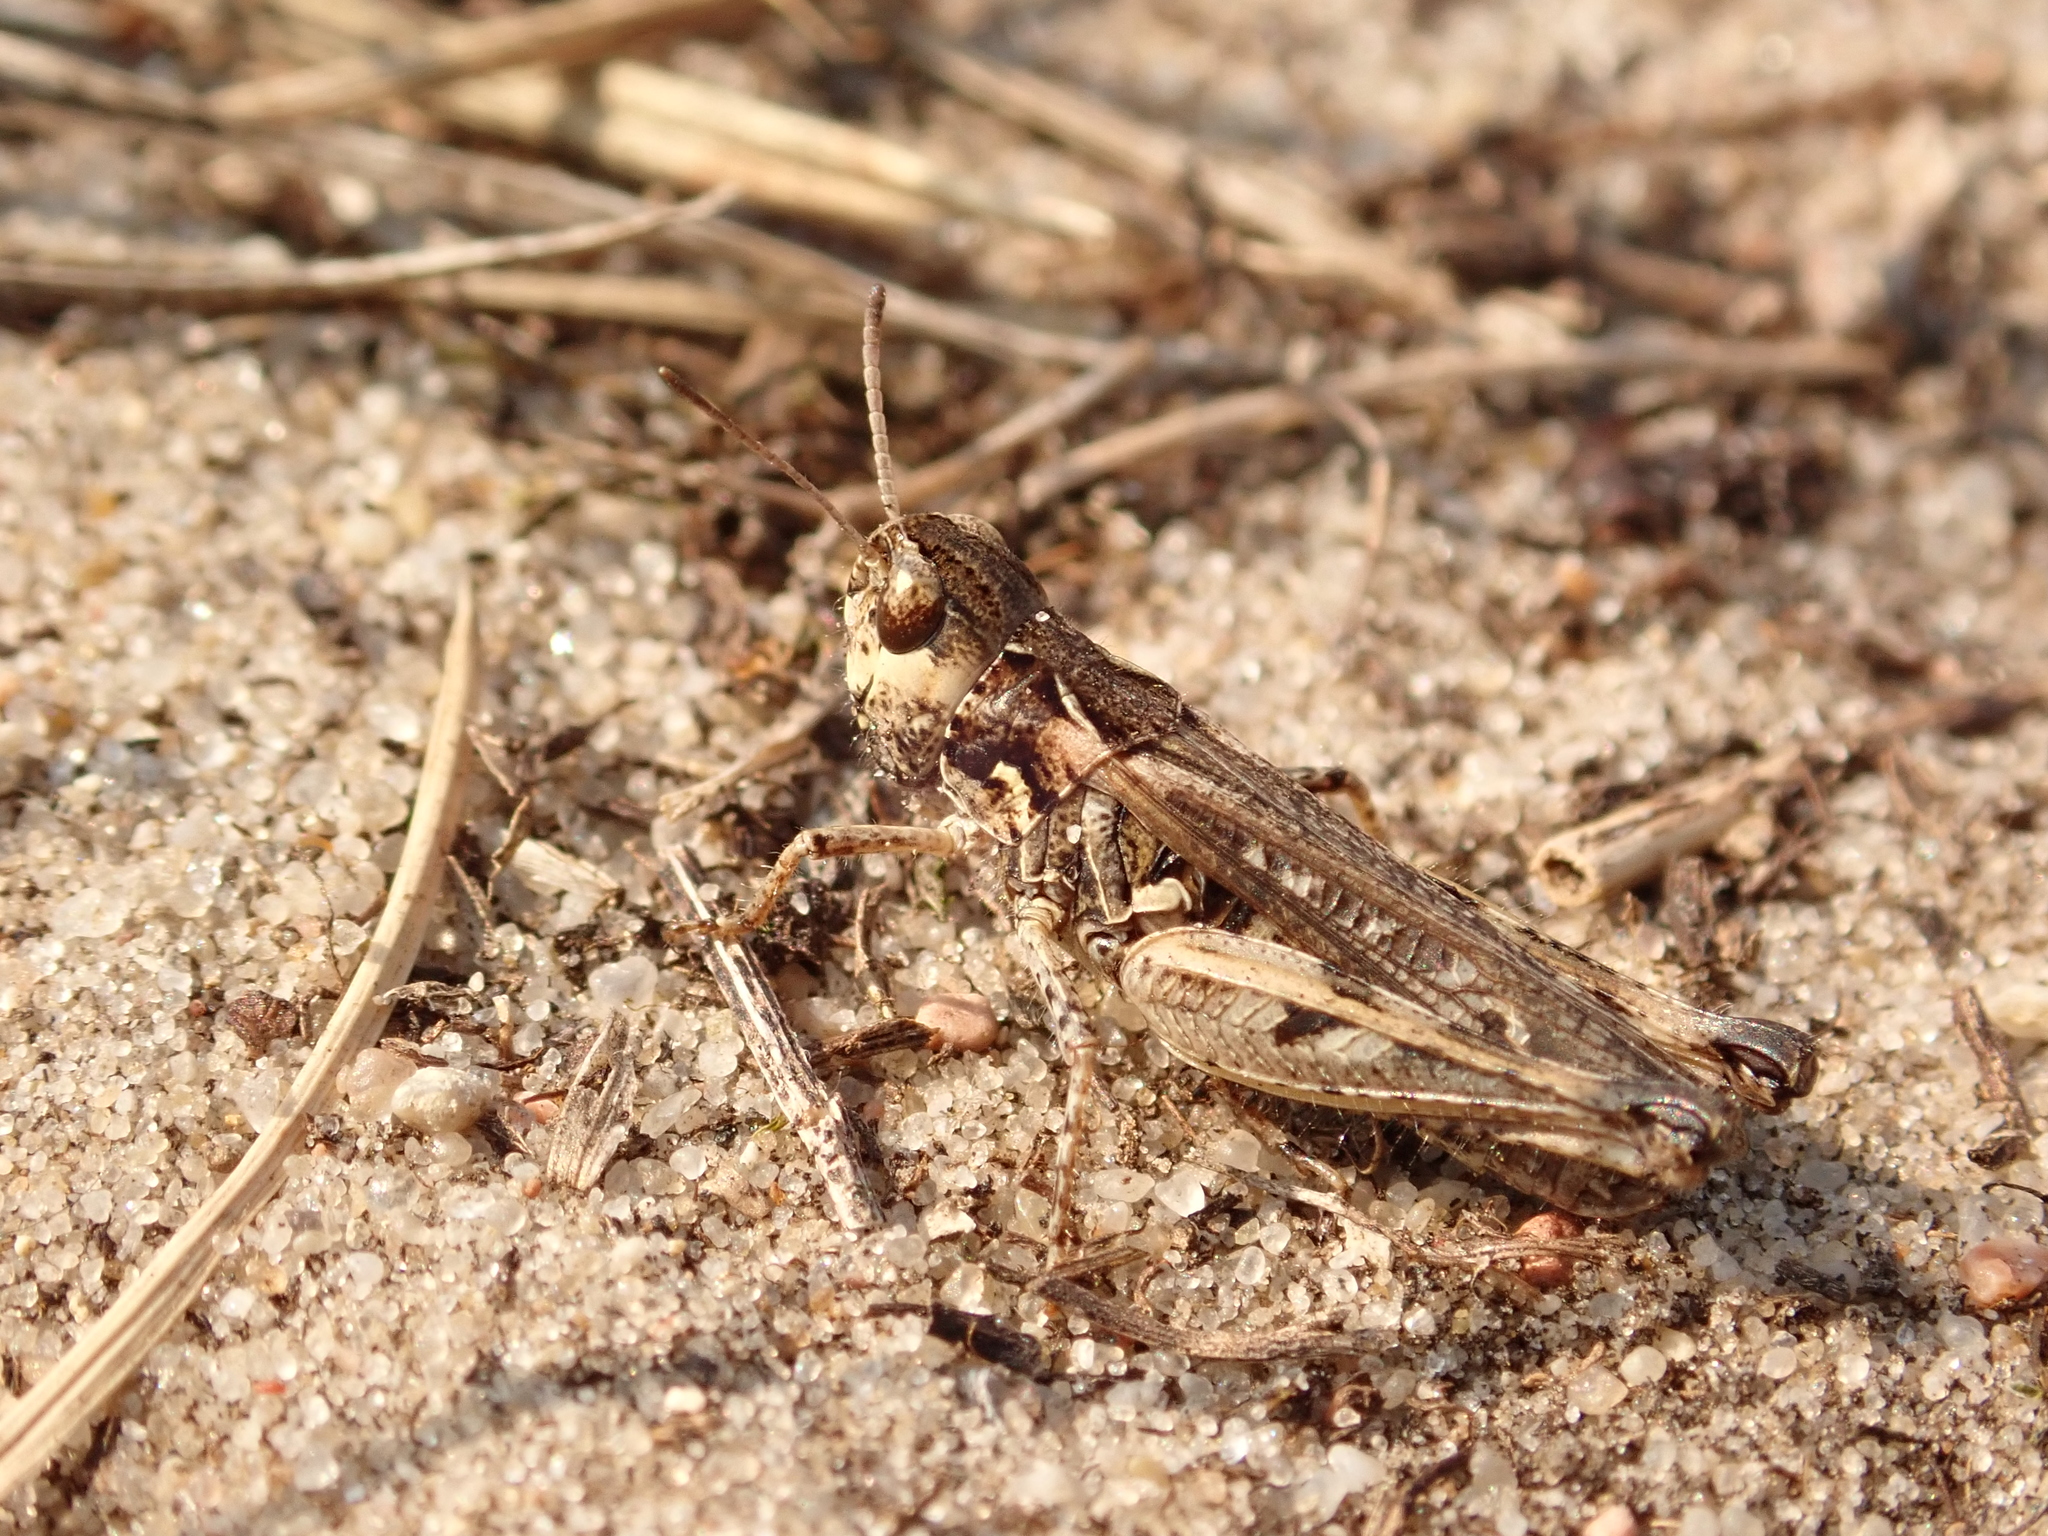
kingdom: Animalia
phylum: Arthropoda
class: Insecta
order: Orthoptera
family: Acrididae
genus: Myrmeleotettix
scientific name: Myrmeleotettix maculatus
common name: Mottled grasshopper
